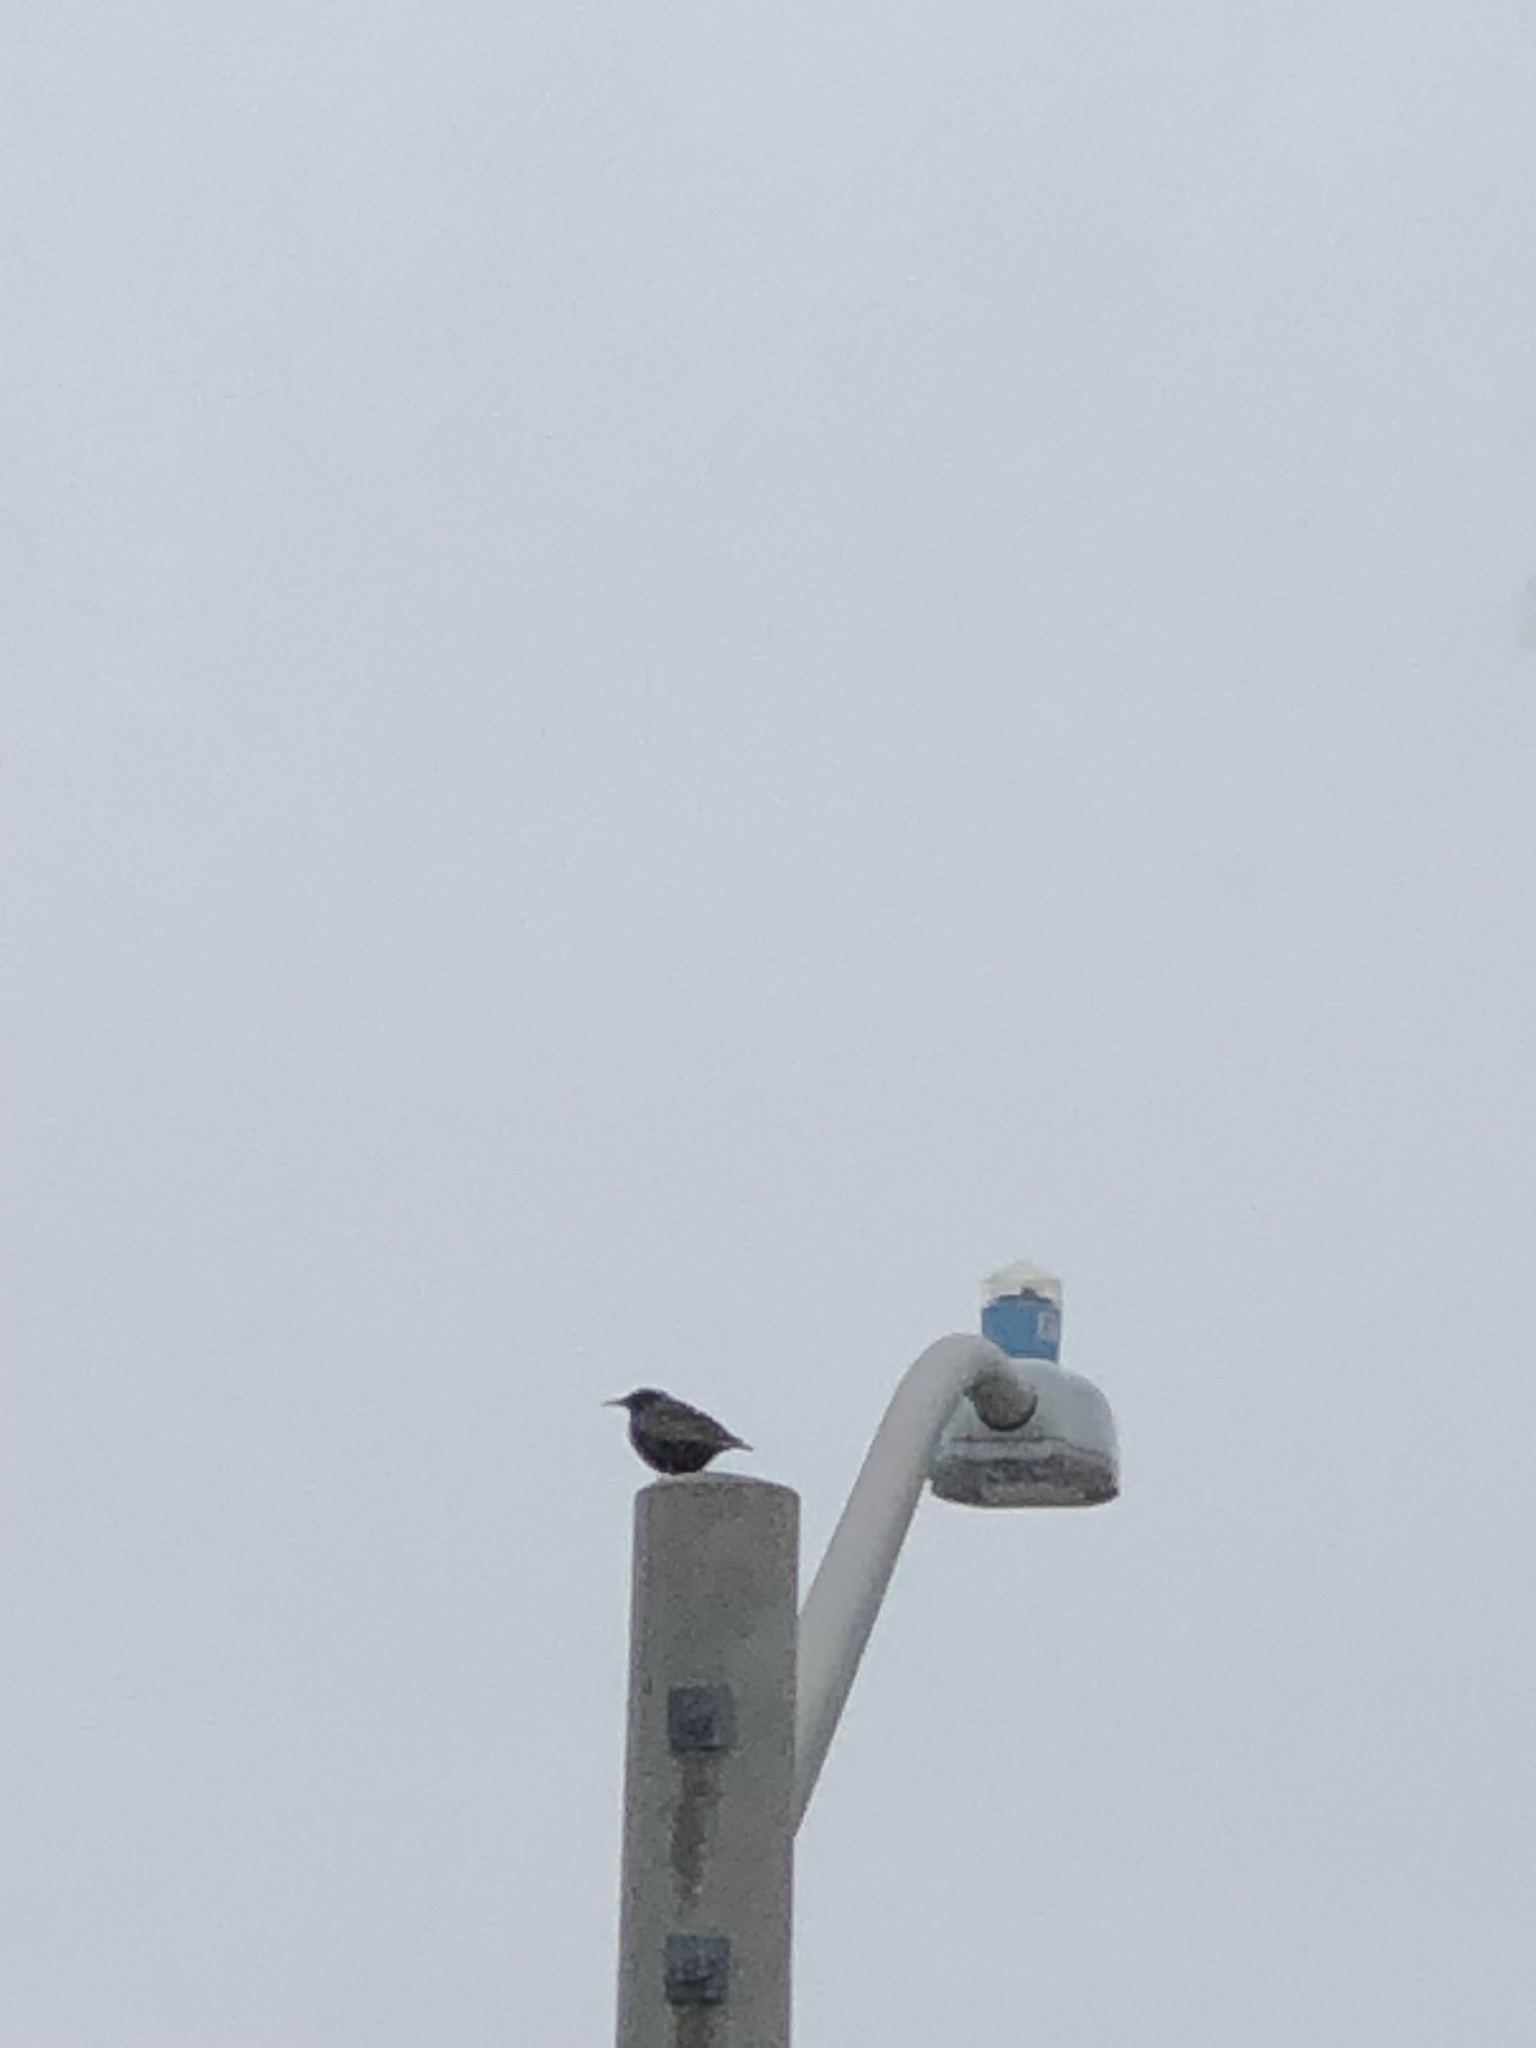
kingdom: Animalia
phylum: Chordata
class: Aves
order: Passeriformes
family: Sturnidae
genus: Sturnus
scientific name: Sturnus vulgaris
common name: Common starling
